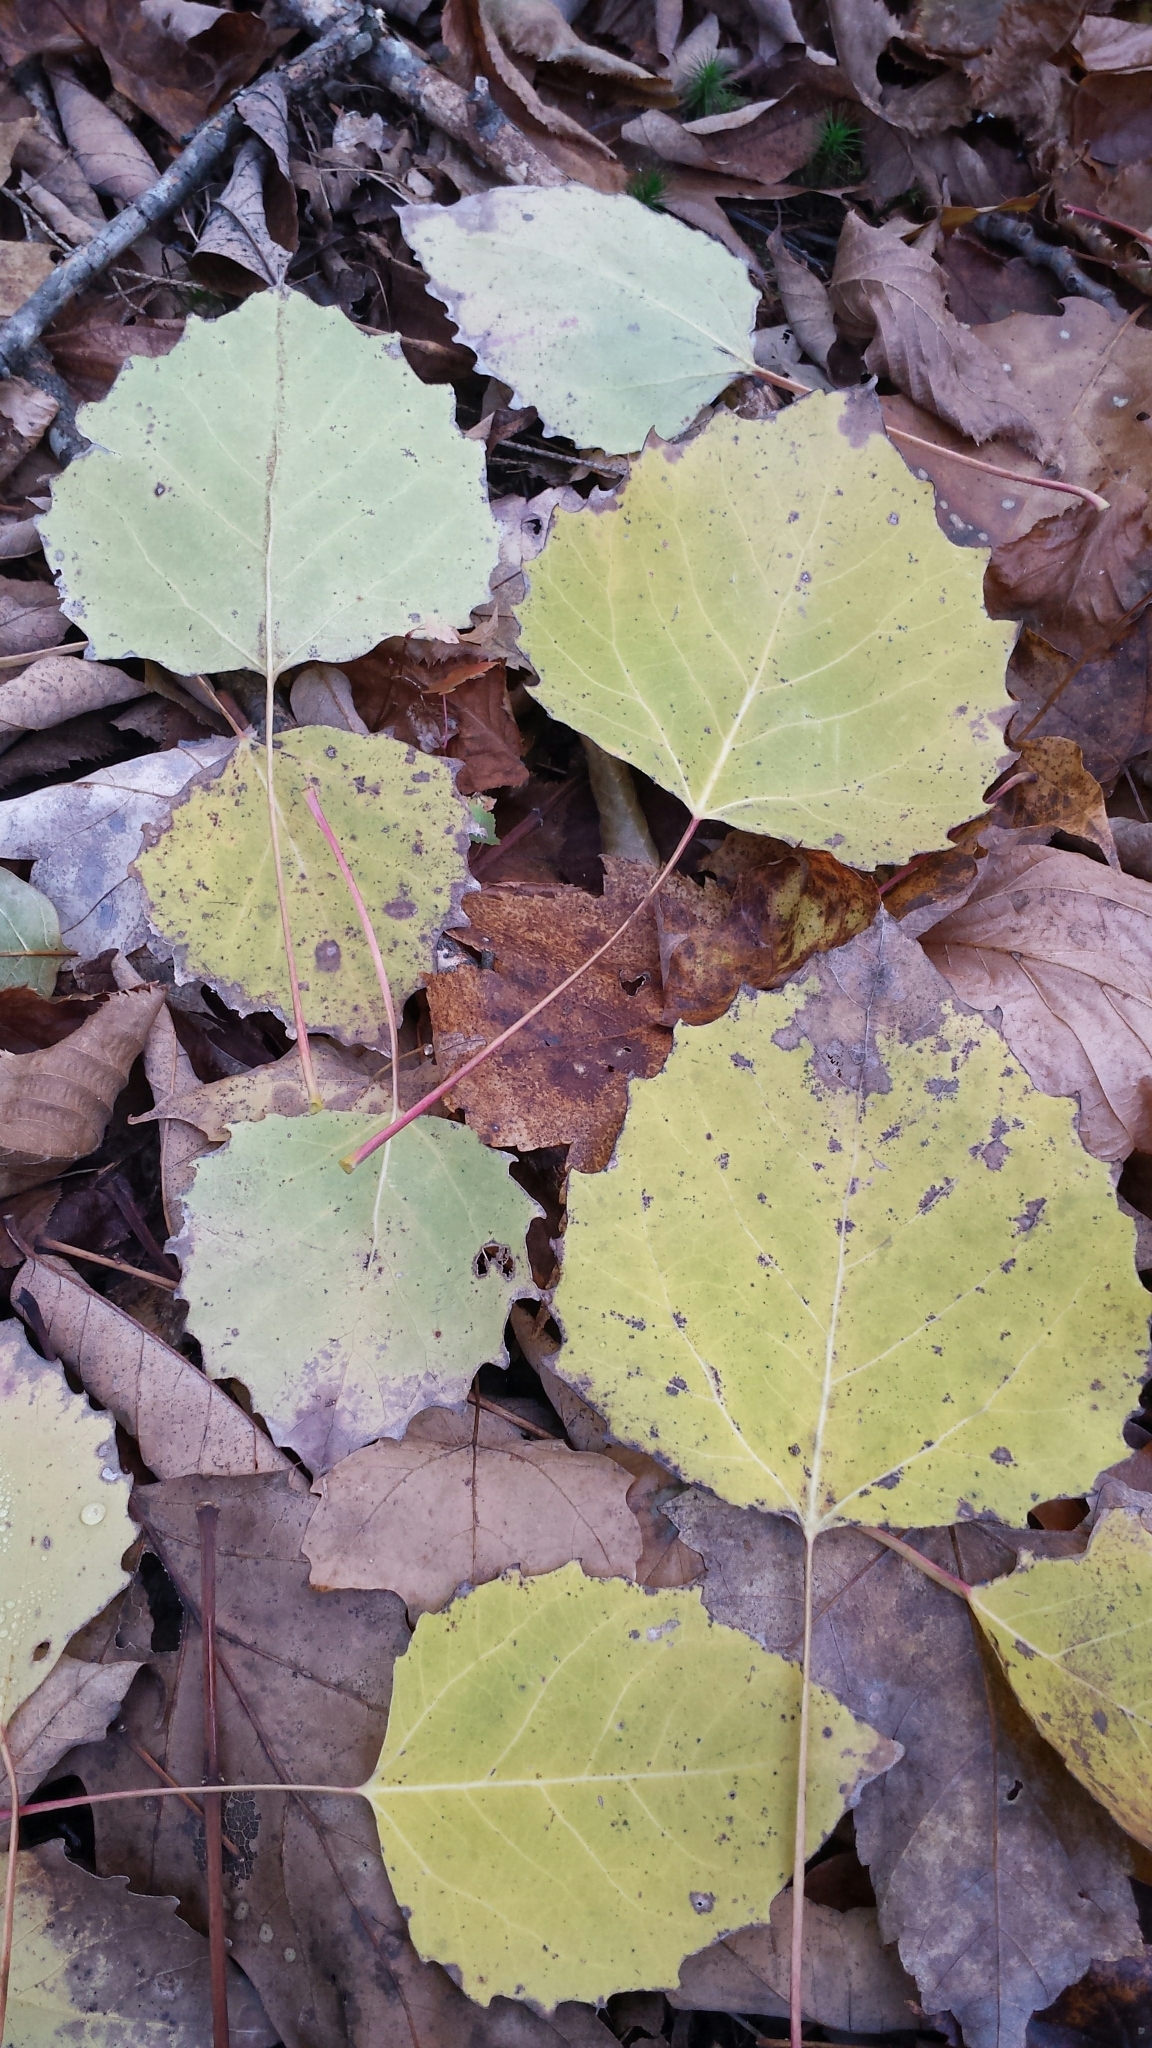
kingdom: Plantae
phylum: Tracheophyta
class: Magnoliopsida
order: Malpighiales
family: Salicaceae
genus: Populus
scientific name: Populus grandidentata
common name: Bigtooth aspen
